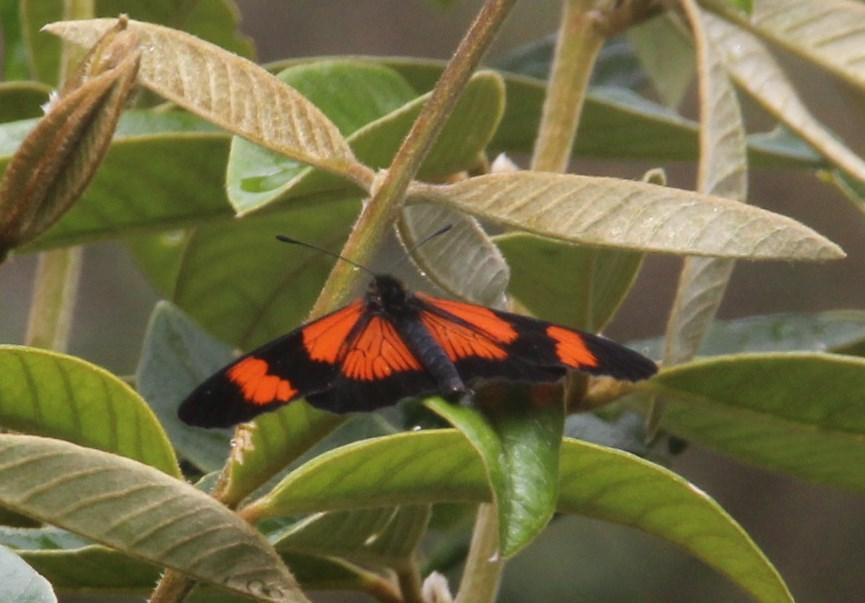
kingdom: Animalia
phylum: Arthropoda
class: Insecta
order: Lepidoptera
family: Nymphalidae
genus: Actinote
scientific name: Actinote negra
